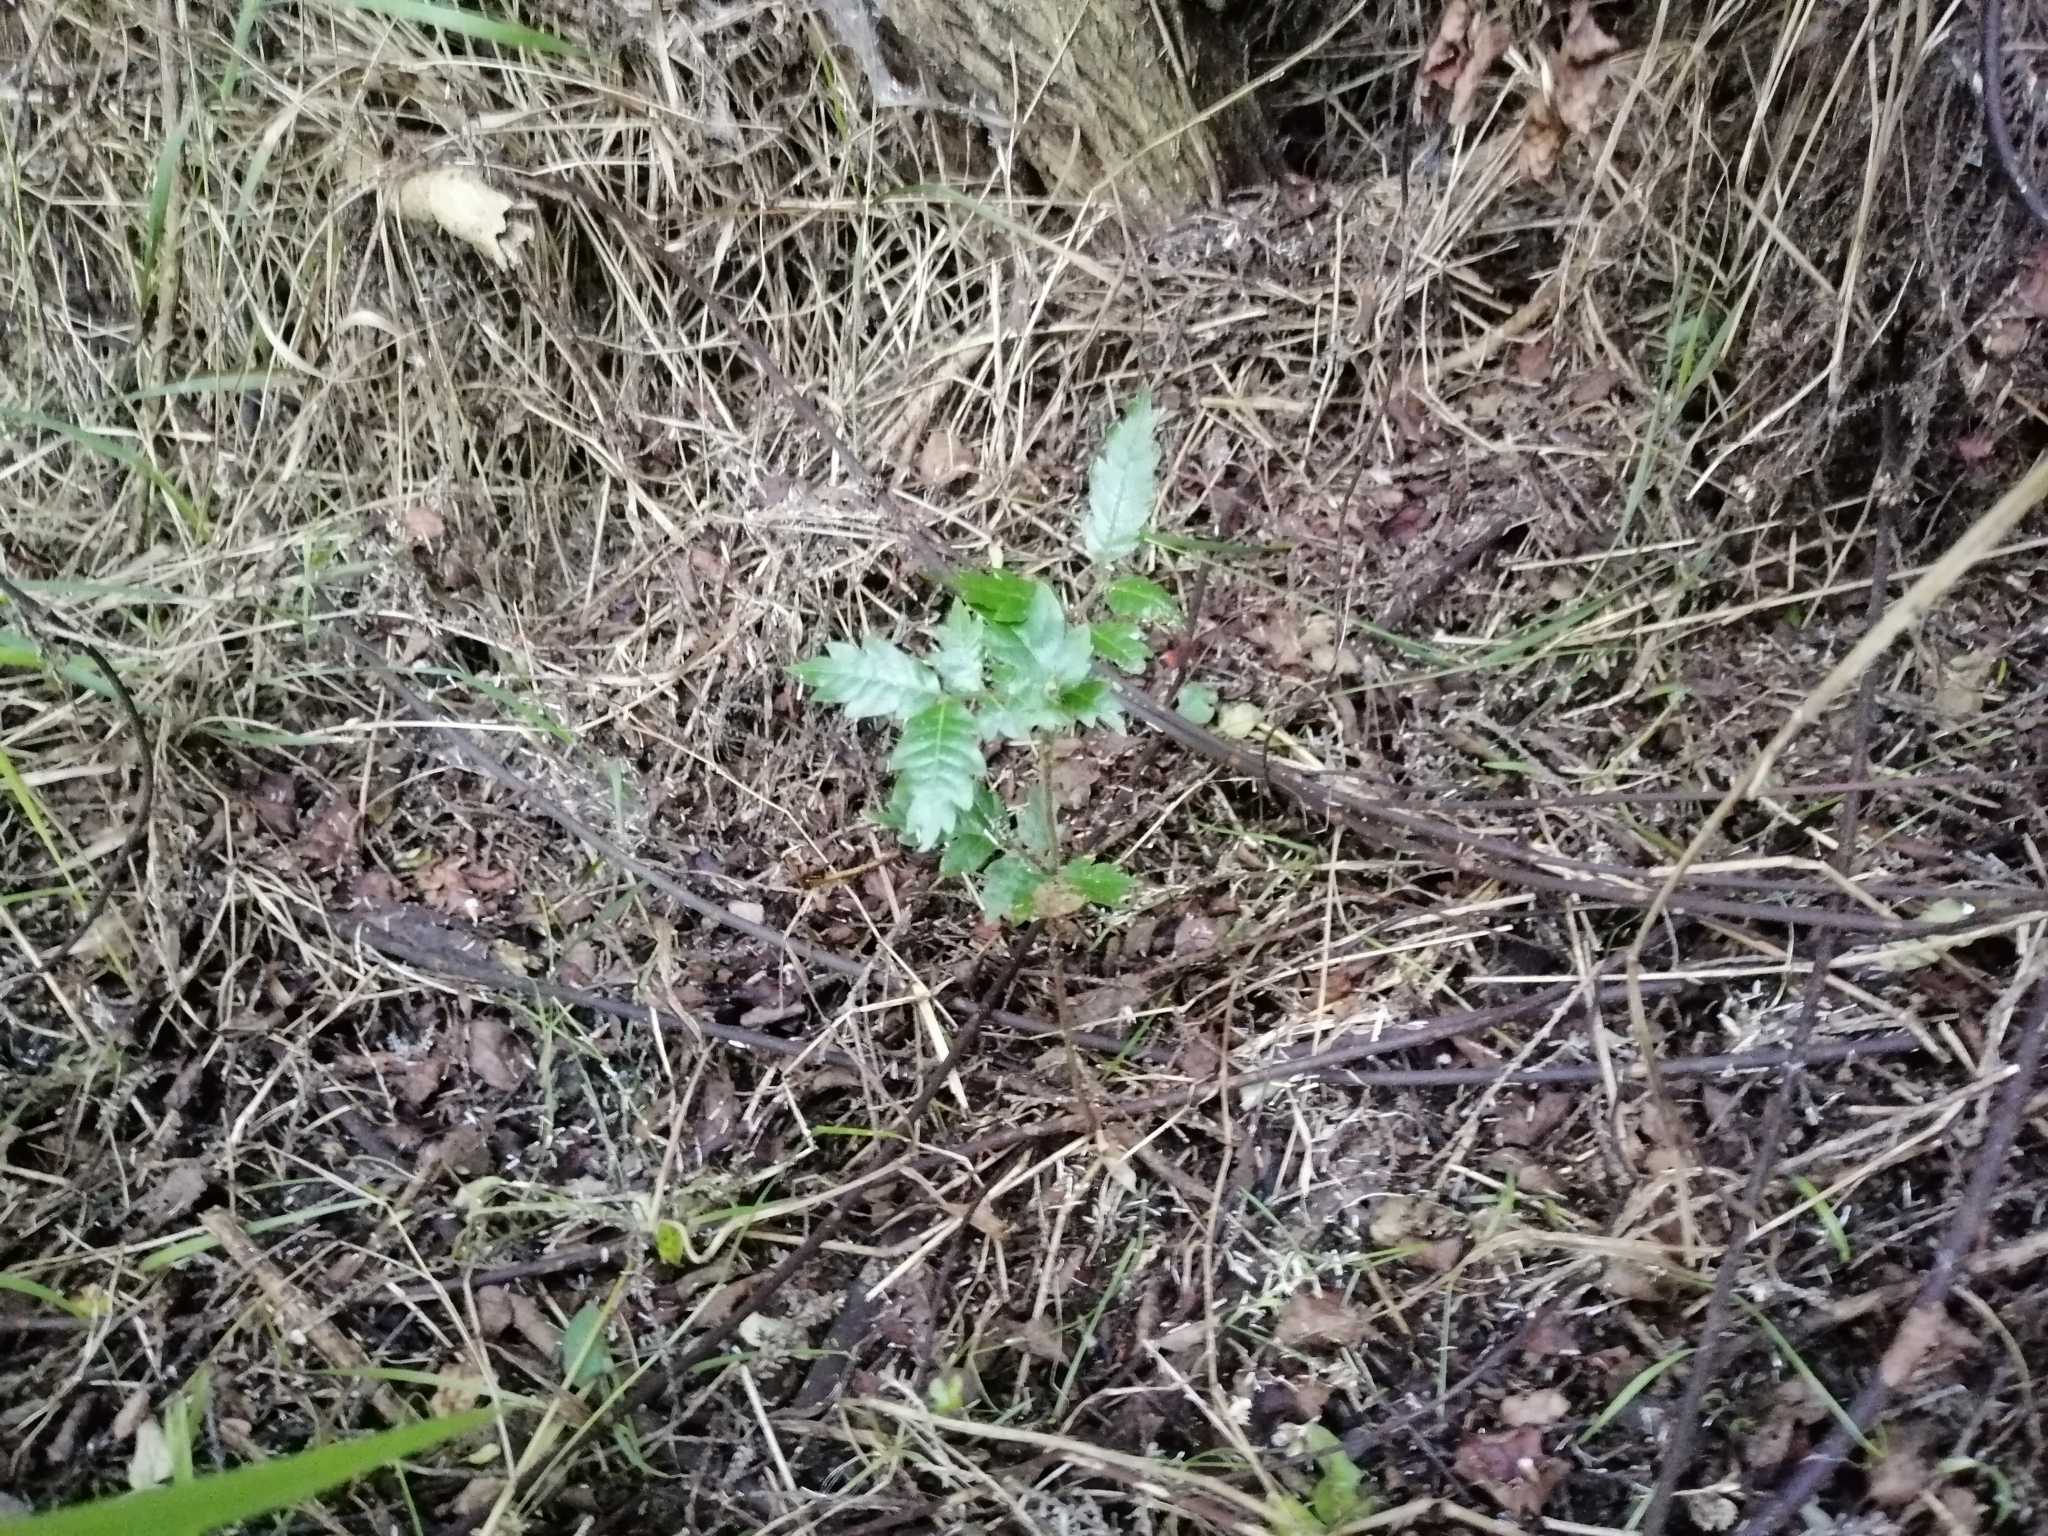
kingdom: Plantae
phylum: Tracheophyta
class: Magnoliopsida
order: Sapindales
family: Sapindaceae
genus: Alectryon
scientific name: Alectryon excelsus
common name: Three kings titoki
